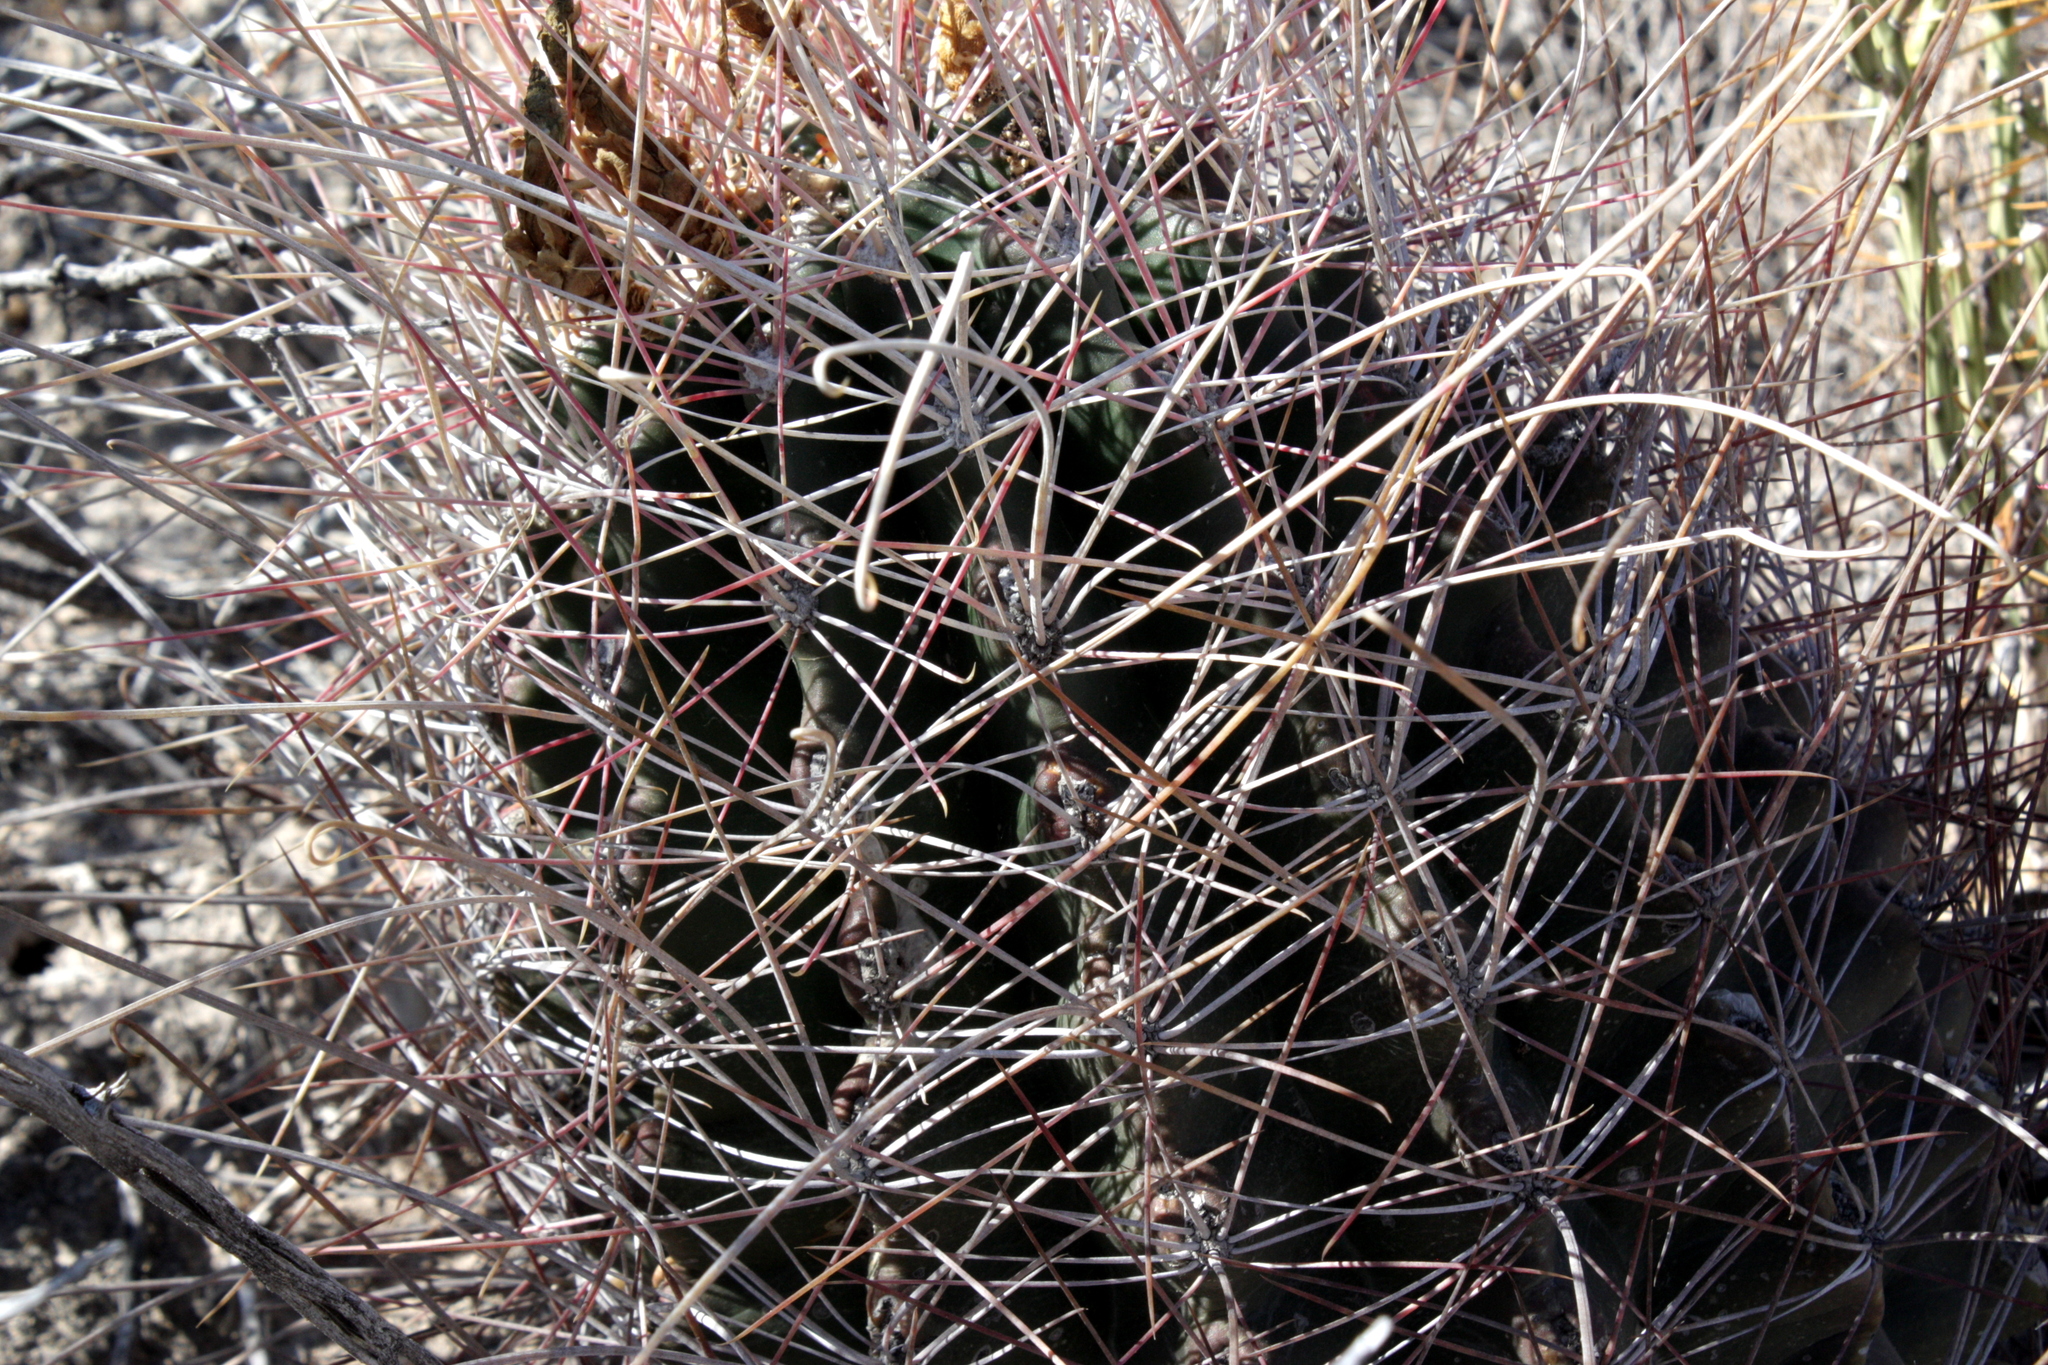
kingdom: Plantae
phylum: Tracheophyta
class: Magnoliopsida
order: Caryophyllales
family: Cactaceae
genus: Bisnaga
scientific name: Bisnaga hamatacantha
